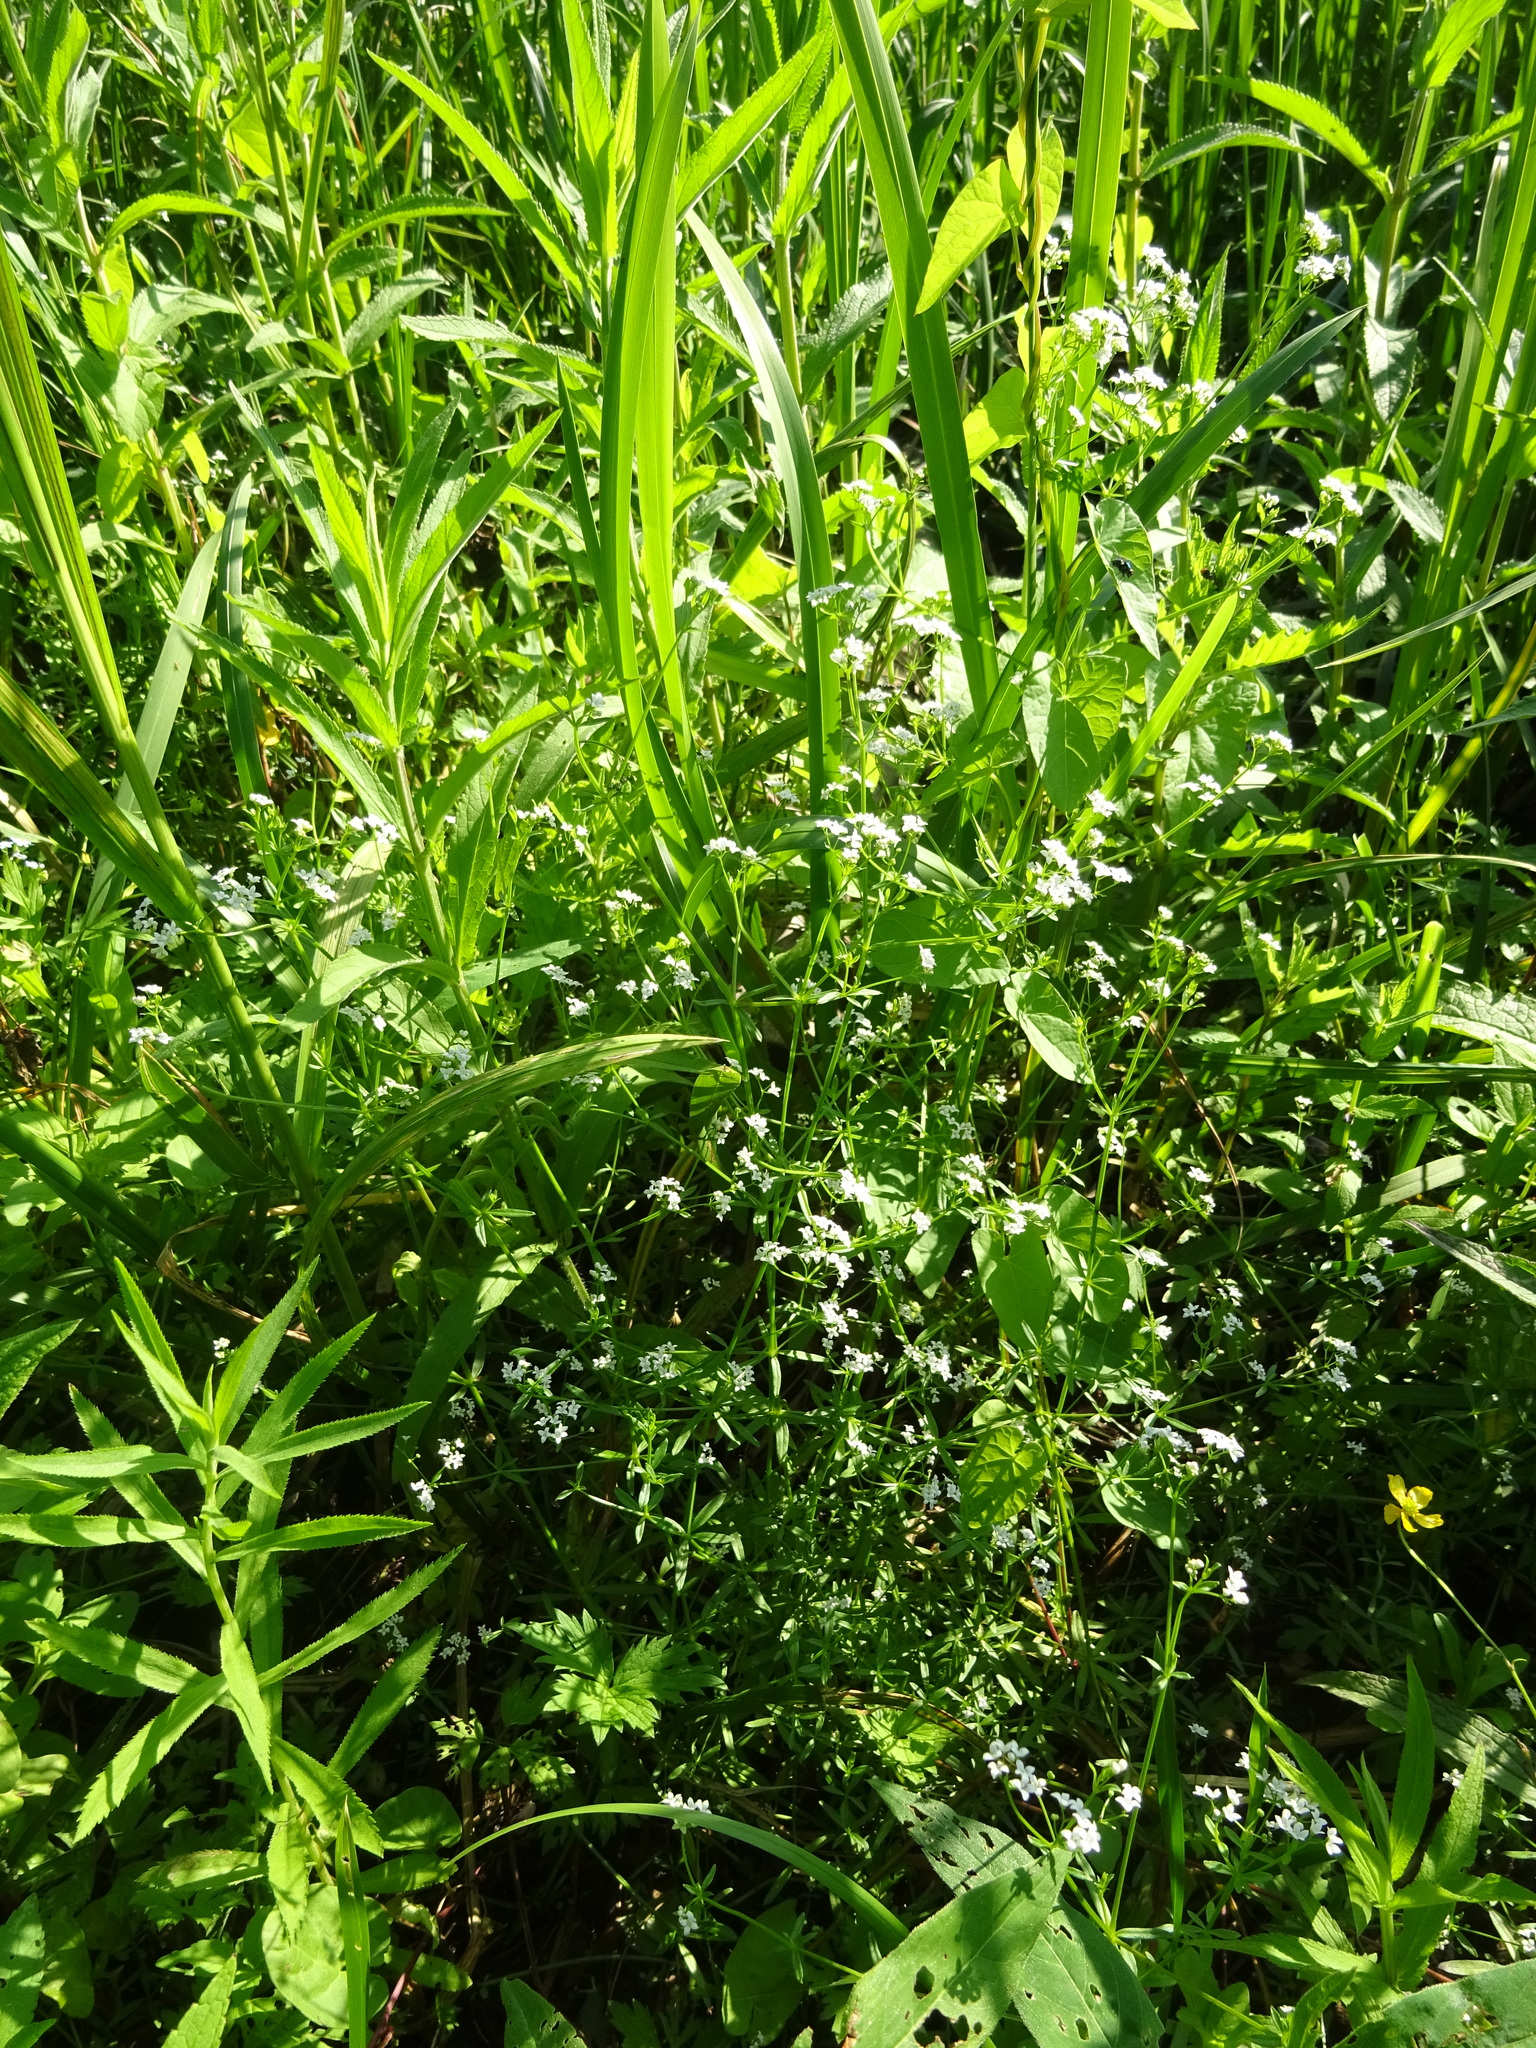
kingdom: Plantae
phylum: Tracheophyta
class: Magnoliopsida
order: Gentianales
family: Rubiaceae
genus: Galium
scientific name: Galium palustre
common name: Common marsh-bedstraw
